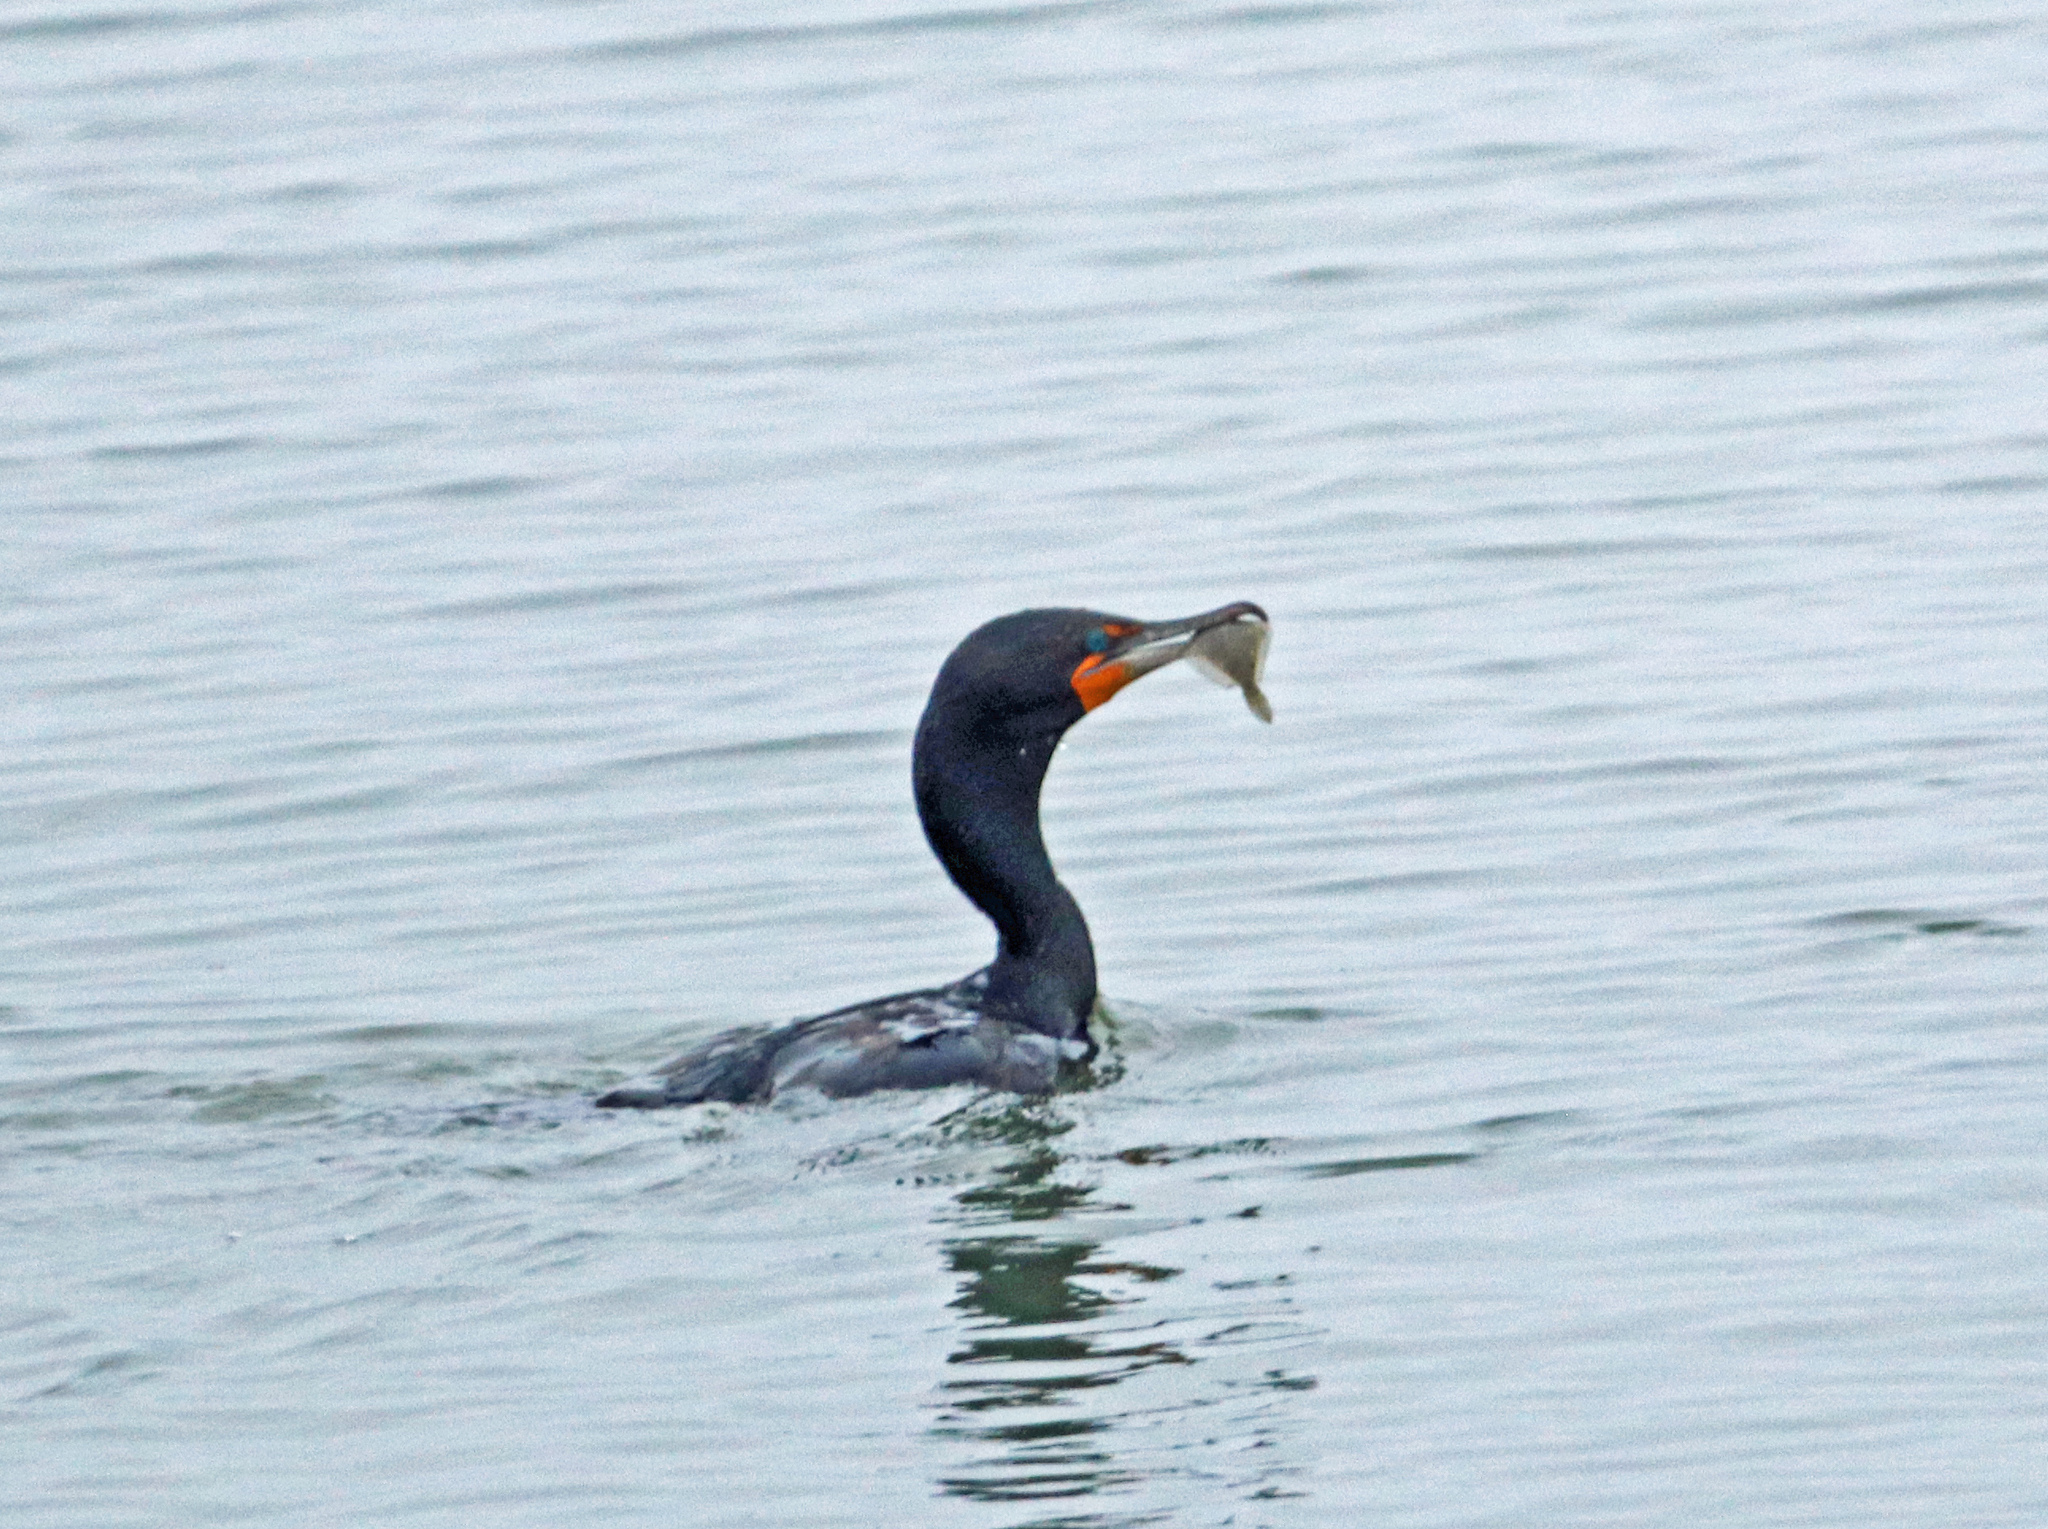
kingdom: Animalia
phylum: Chordata
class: Aves
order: Suliformes
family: Phalacrocoracidae
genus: Phalacrocorax
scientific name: Phalacrocorax auritus
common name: Double-crested cormorant
